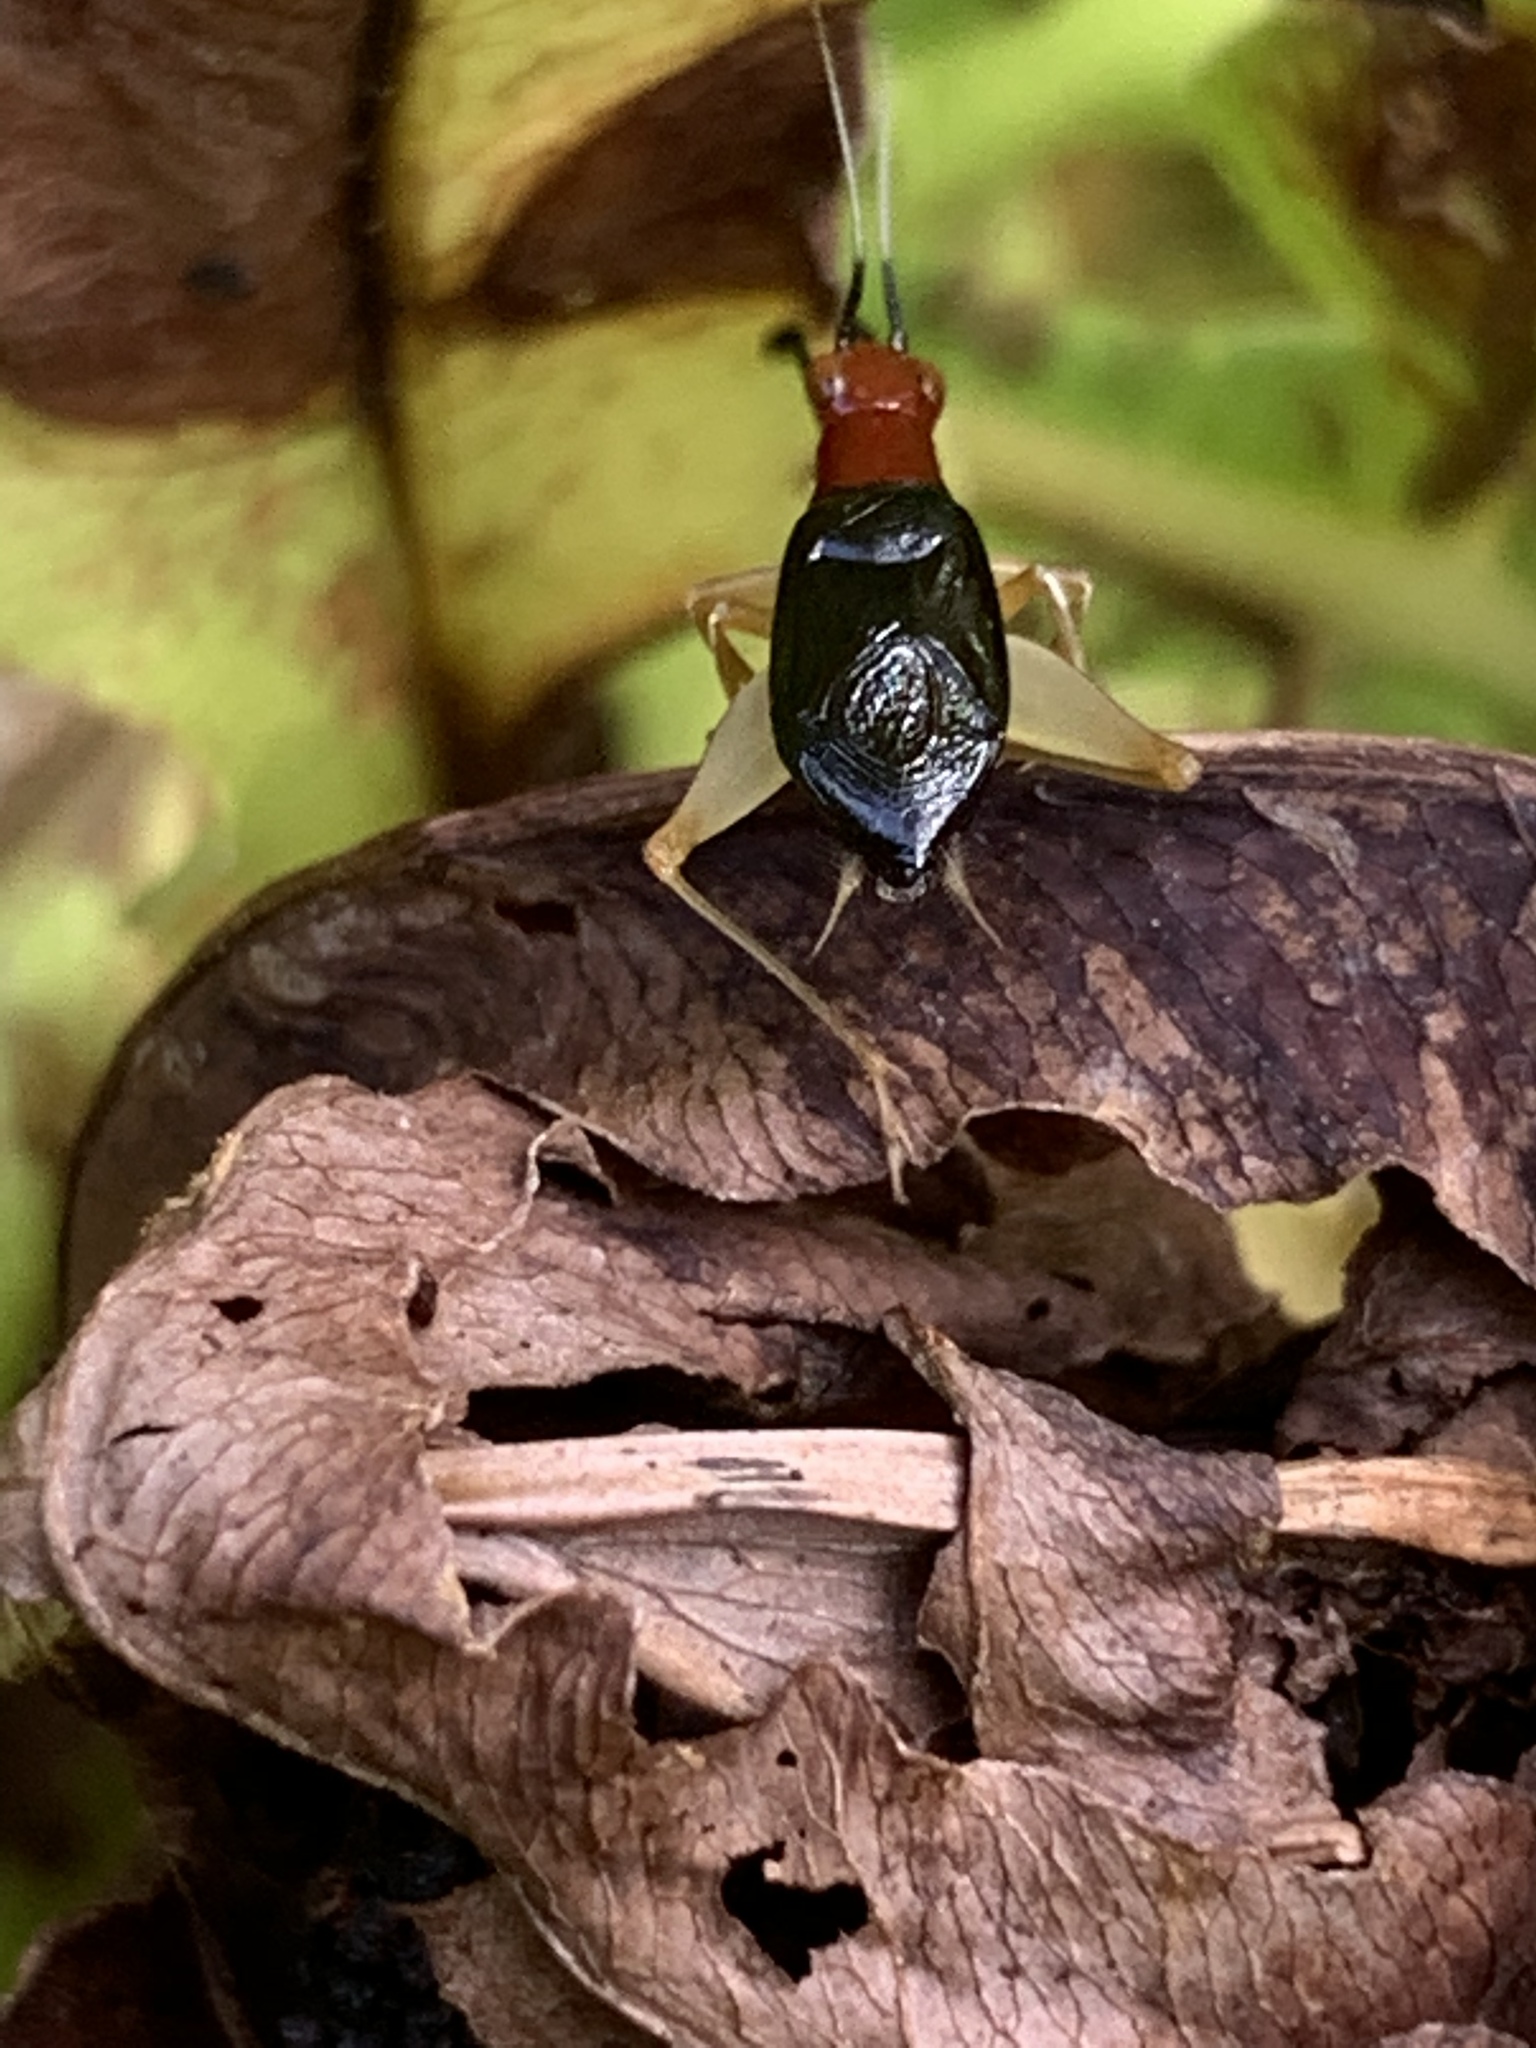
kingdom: Animalia
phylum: Arthropoda
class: Insecta
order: Orthoptera
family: Trigonidiidae
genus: Phyllopalpus
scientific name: Phyllopalpus pulchellus
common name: Handsome trig
